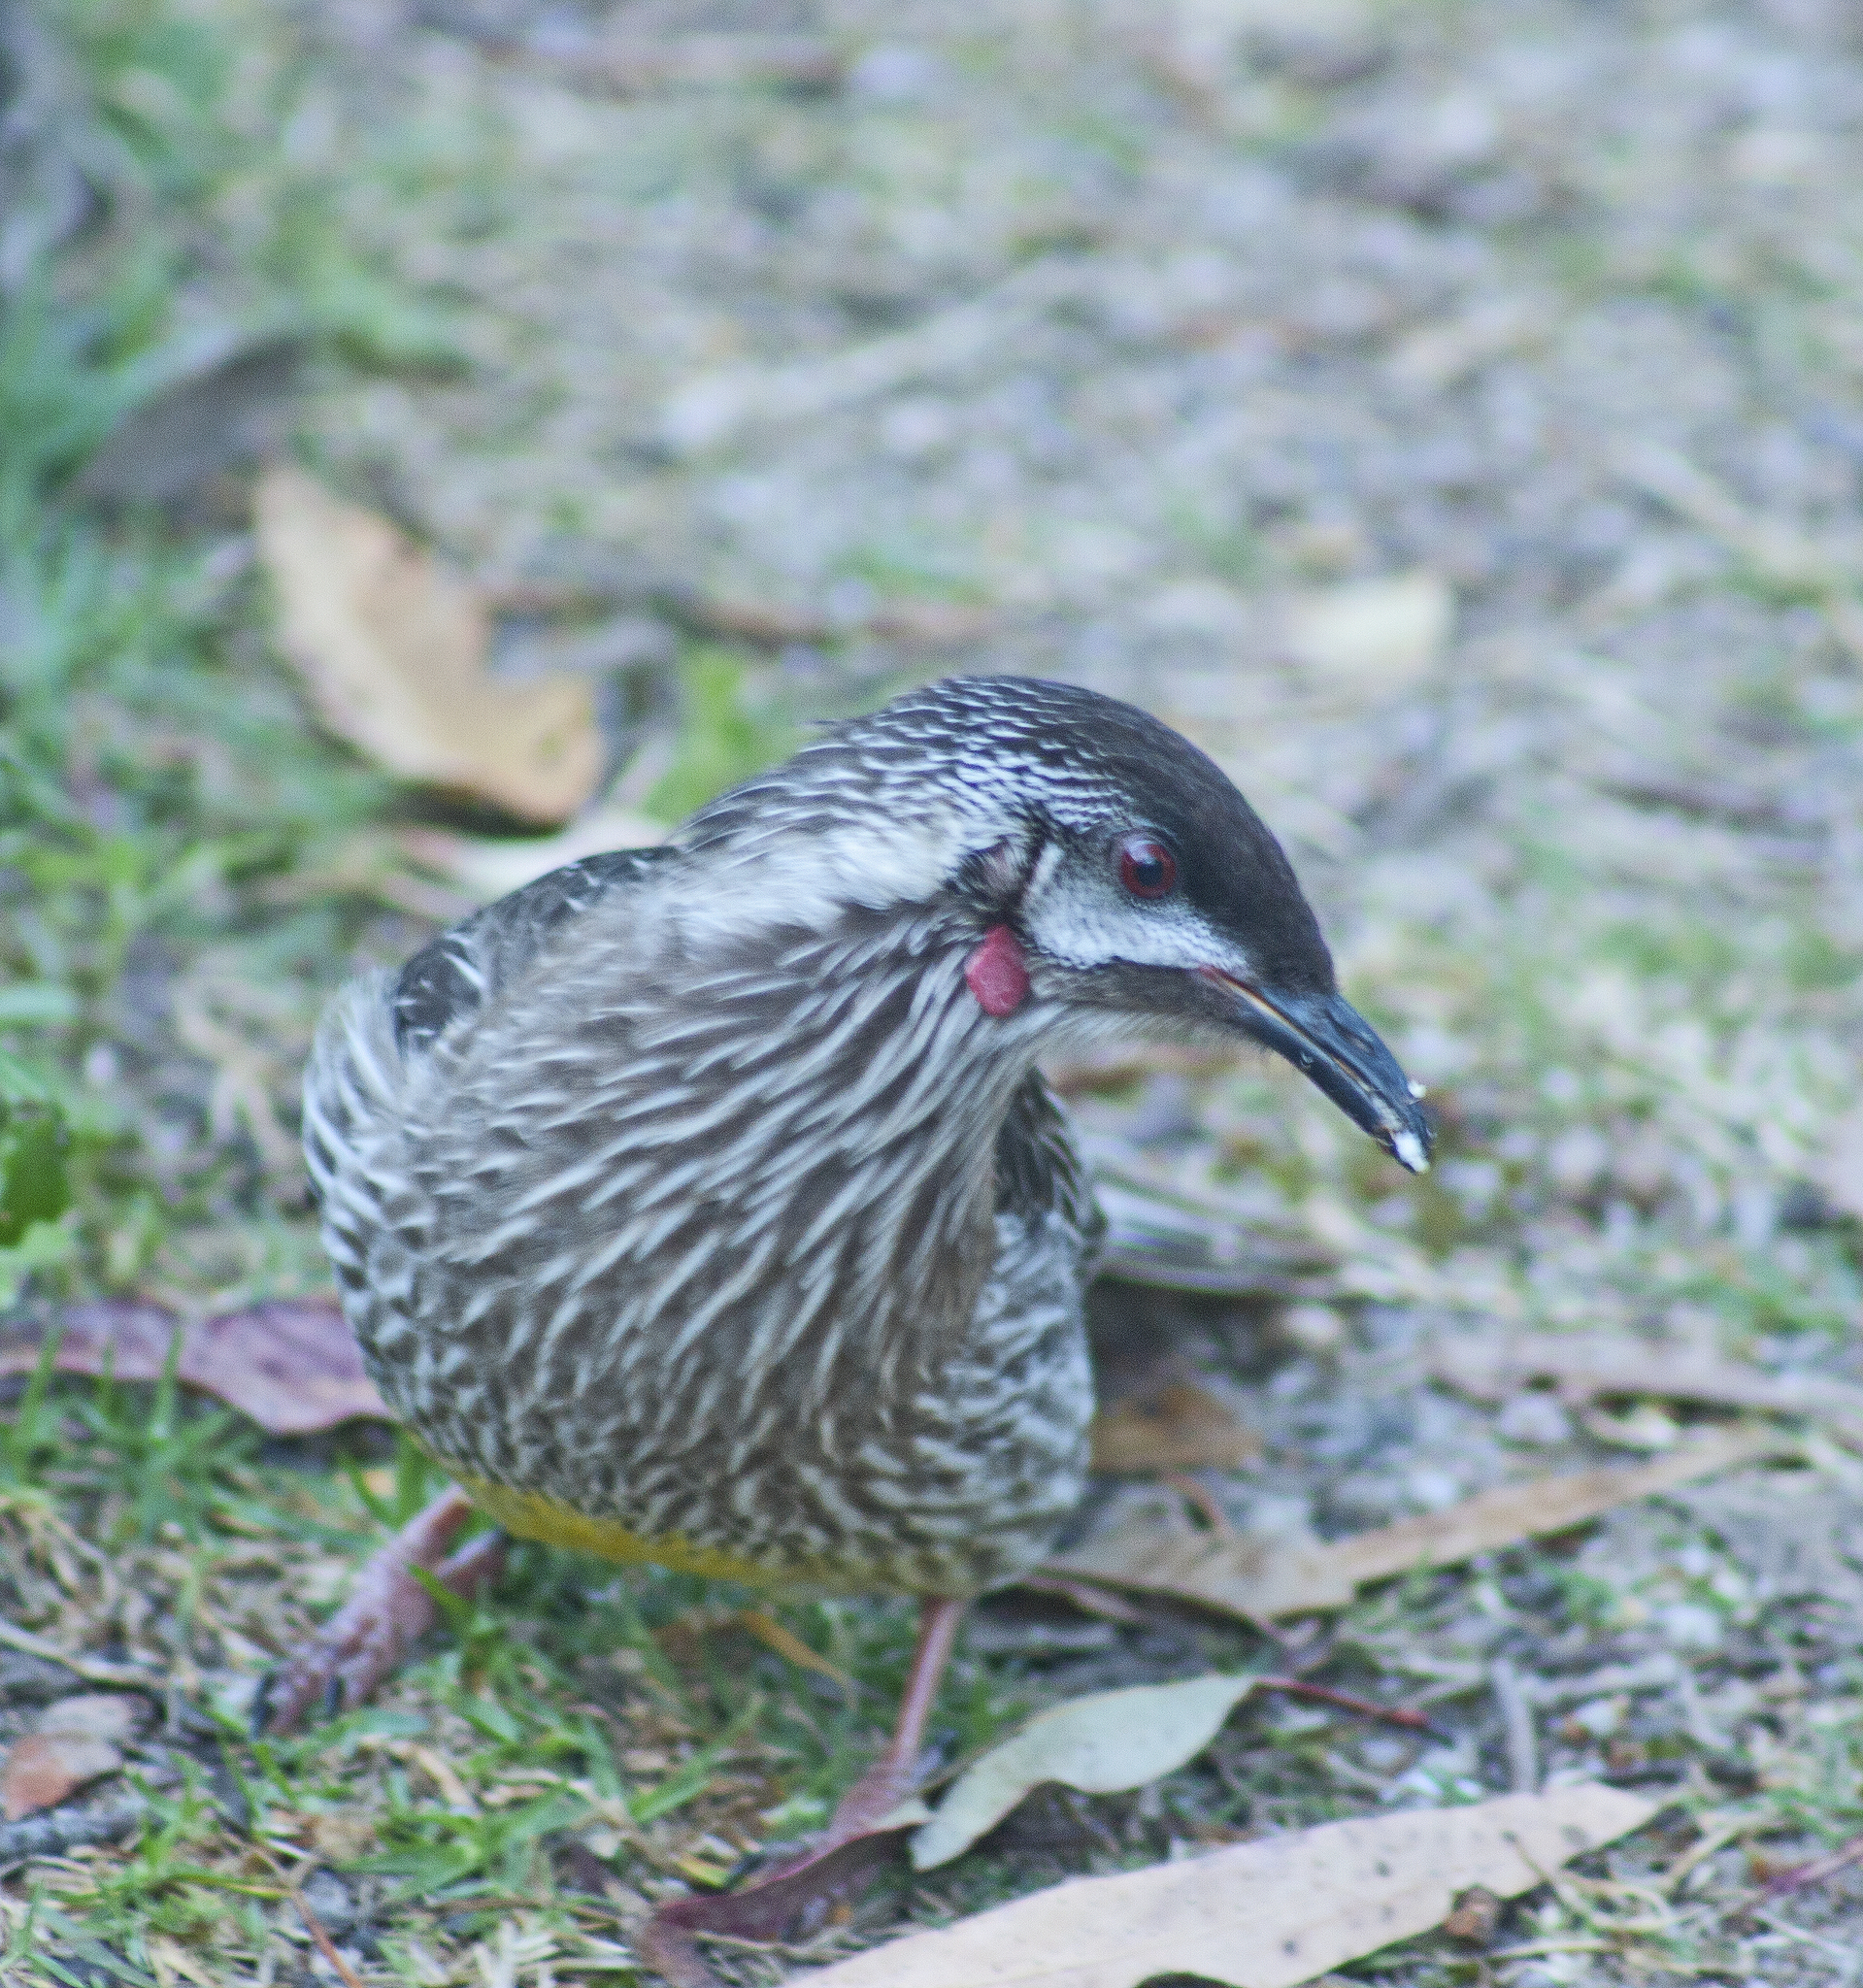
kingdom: Animalia
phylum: Chordata
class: Aves
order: Passeriformes
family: Meliphagidae
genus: Anthochaera
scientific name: Anthochaera carunculata
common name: Red wattlebird
